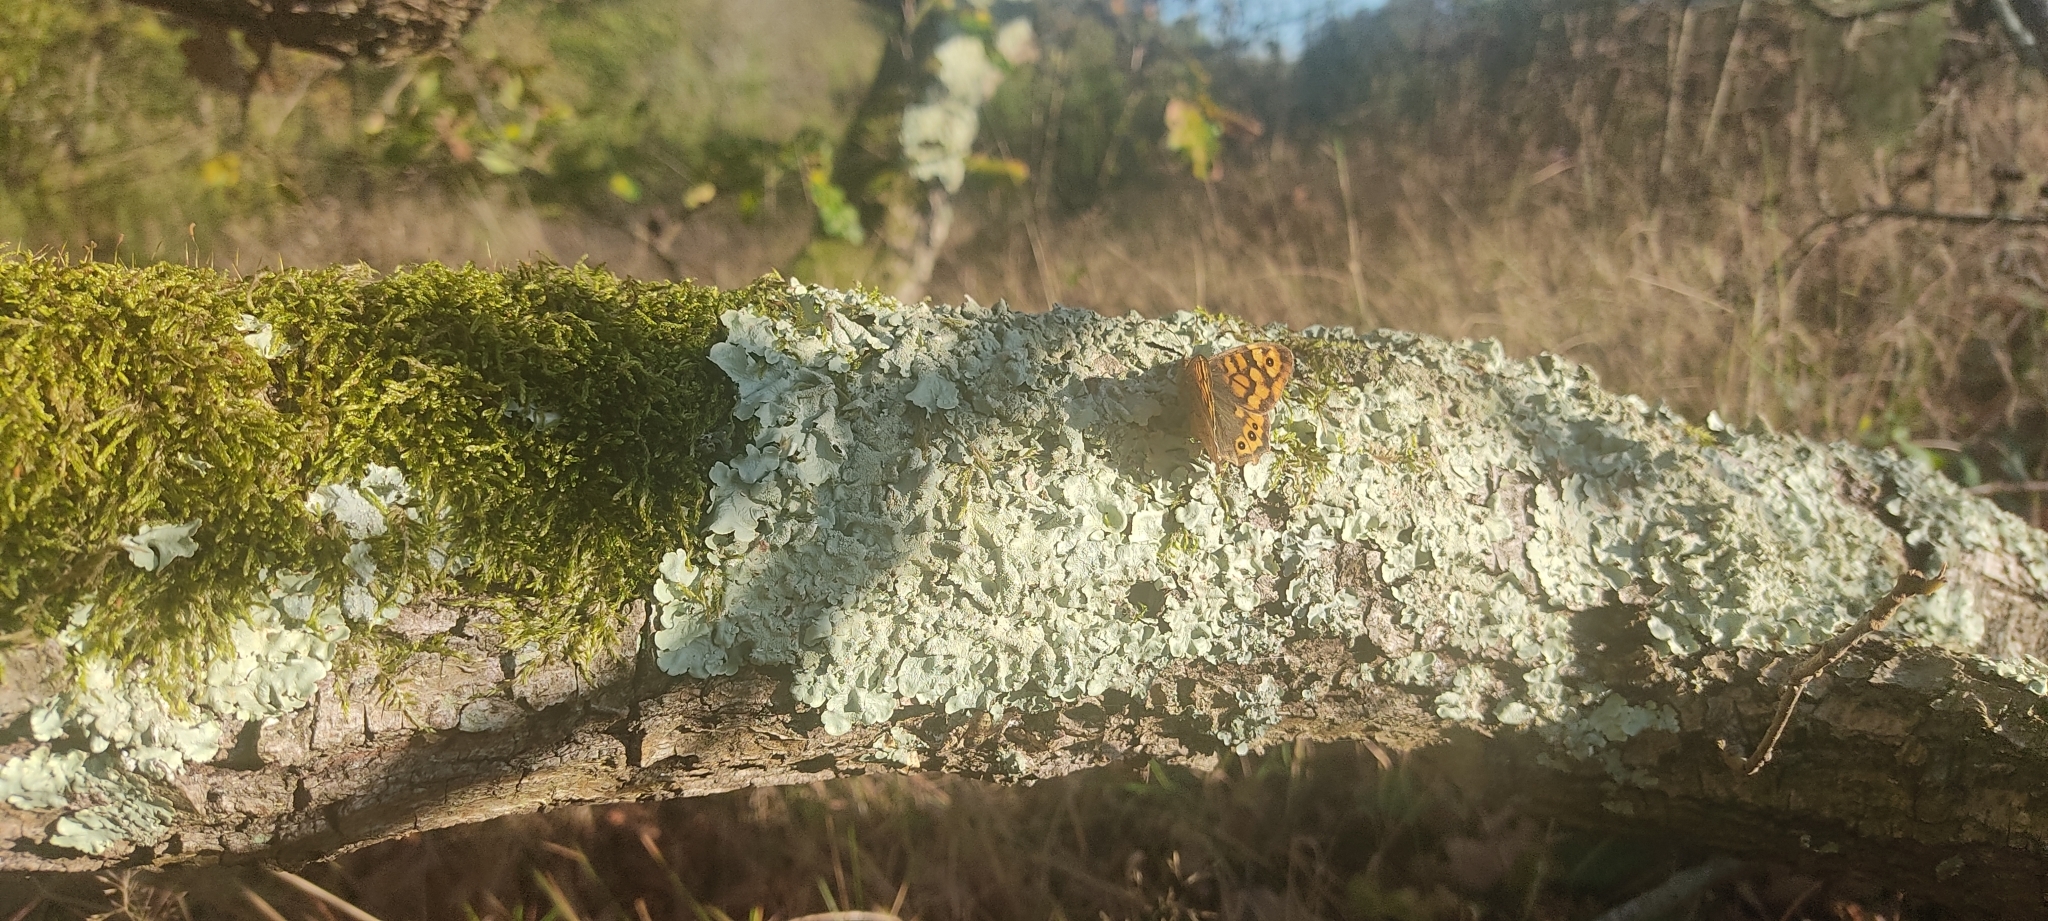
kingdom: Animalia
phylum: Arthropoda
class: Insecta
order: Lepidoptera
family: Nymphalidae
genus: Pararge
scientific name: Pararge aegeria
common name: Speckled wood
